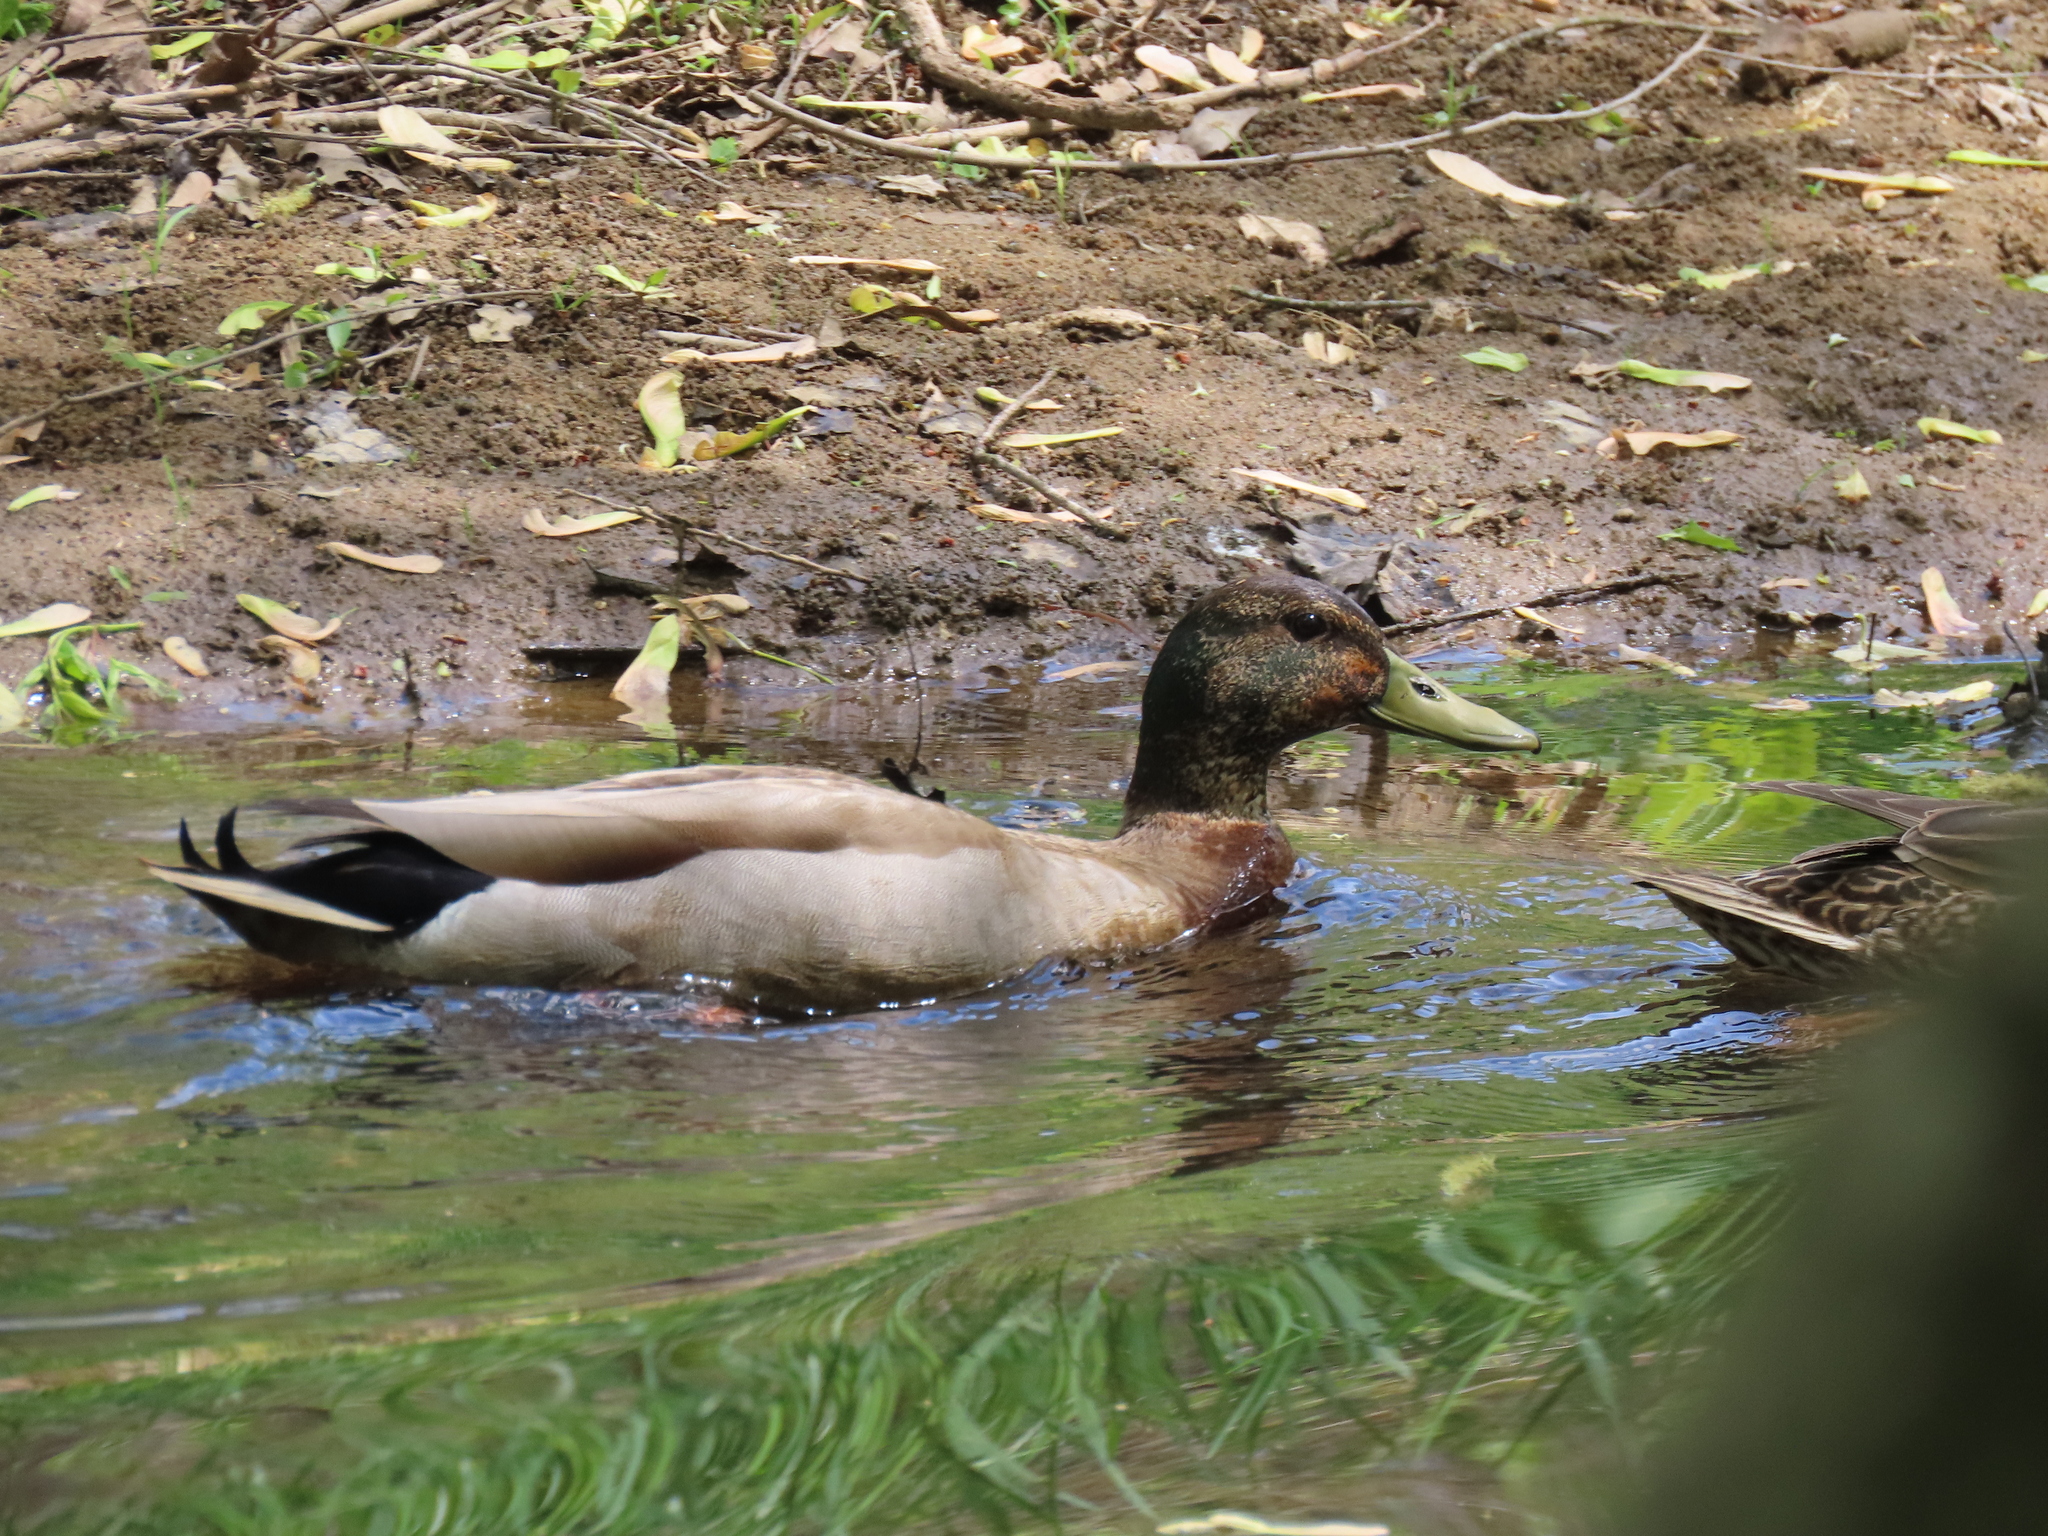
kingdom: Animalia
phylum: Chordata
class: Aves
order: Anseriformes
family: Anatidae
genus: Anas
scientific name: Anas platyrhynchos
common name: Mallard
